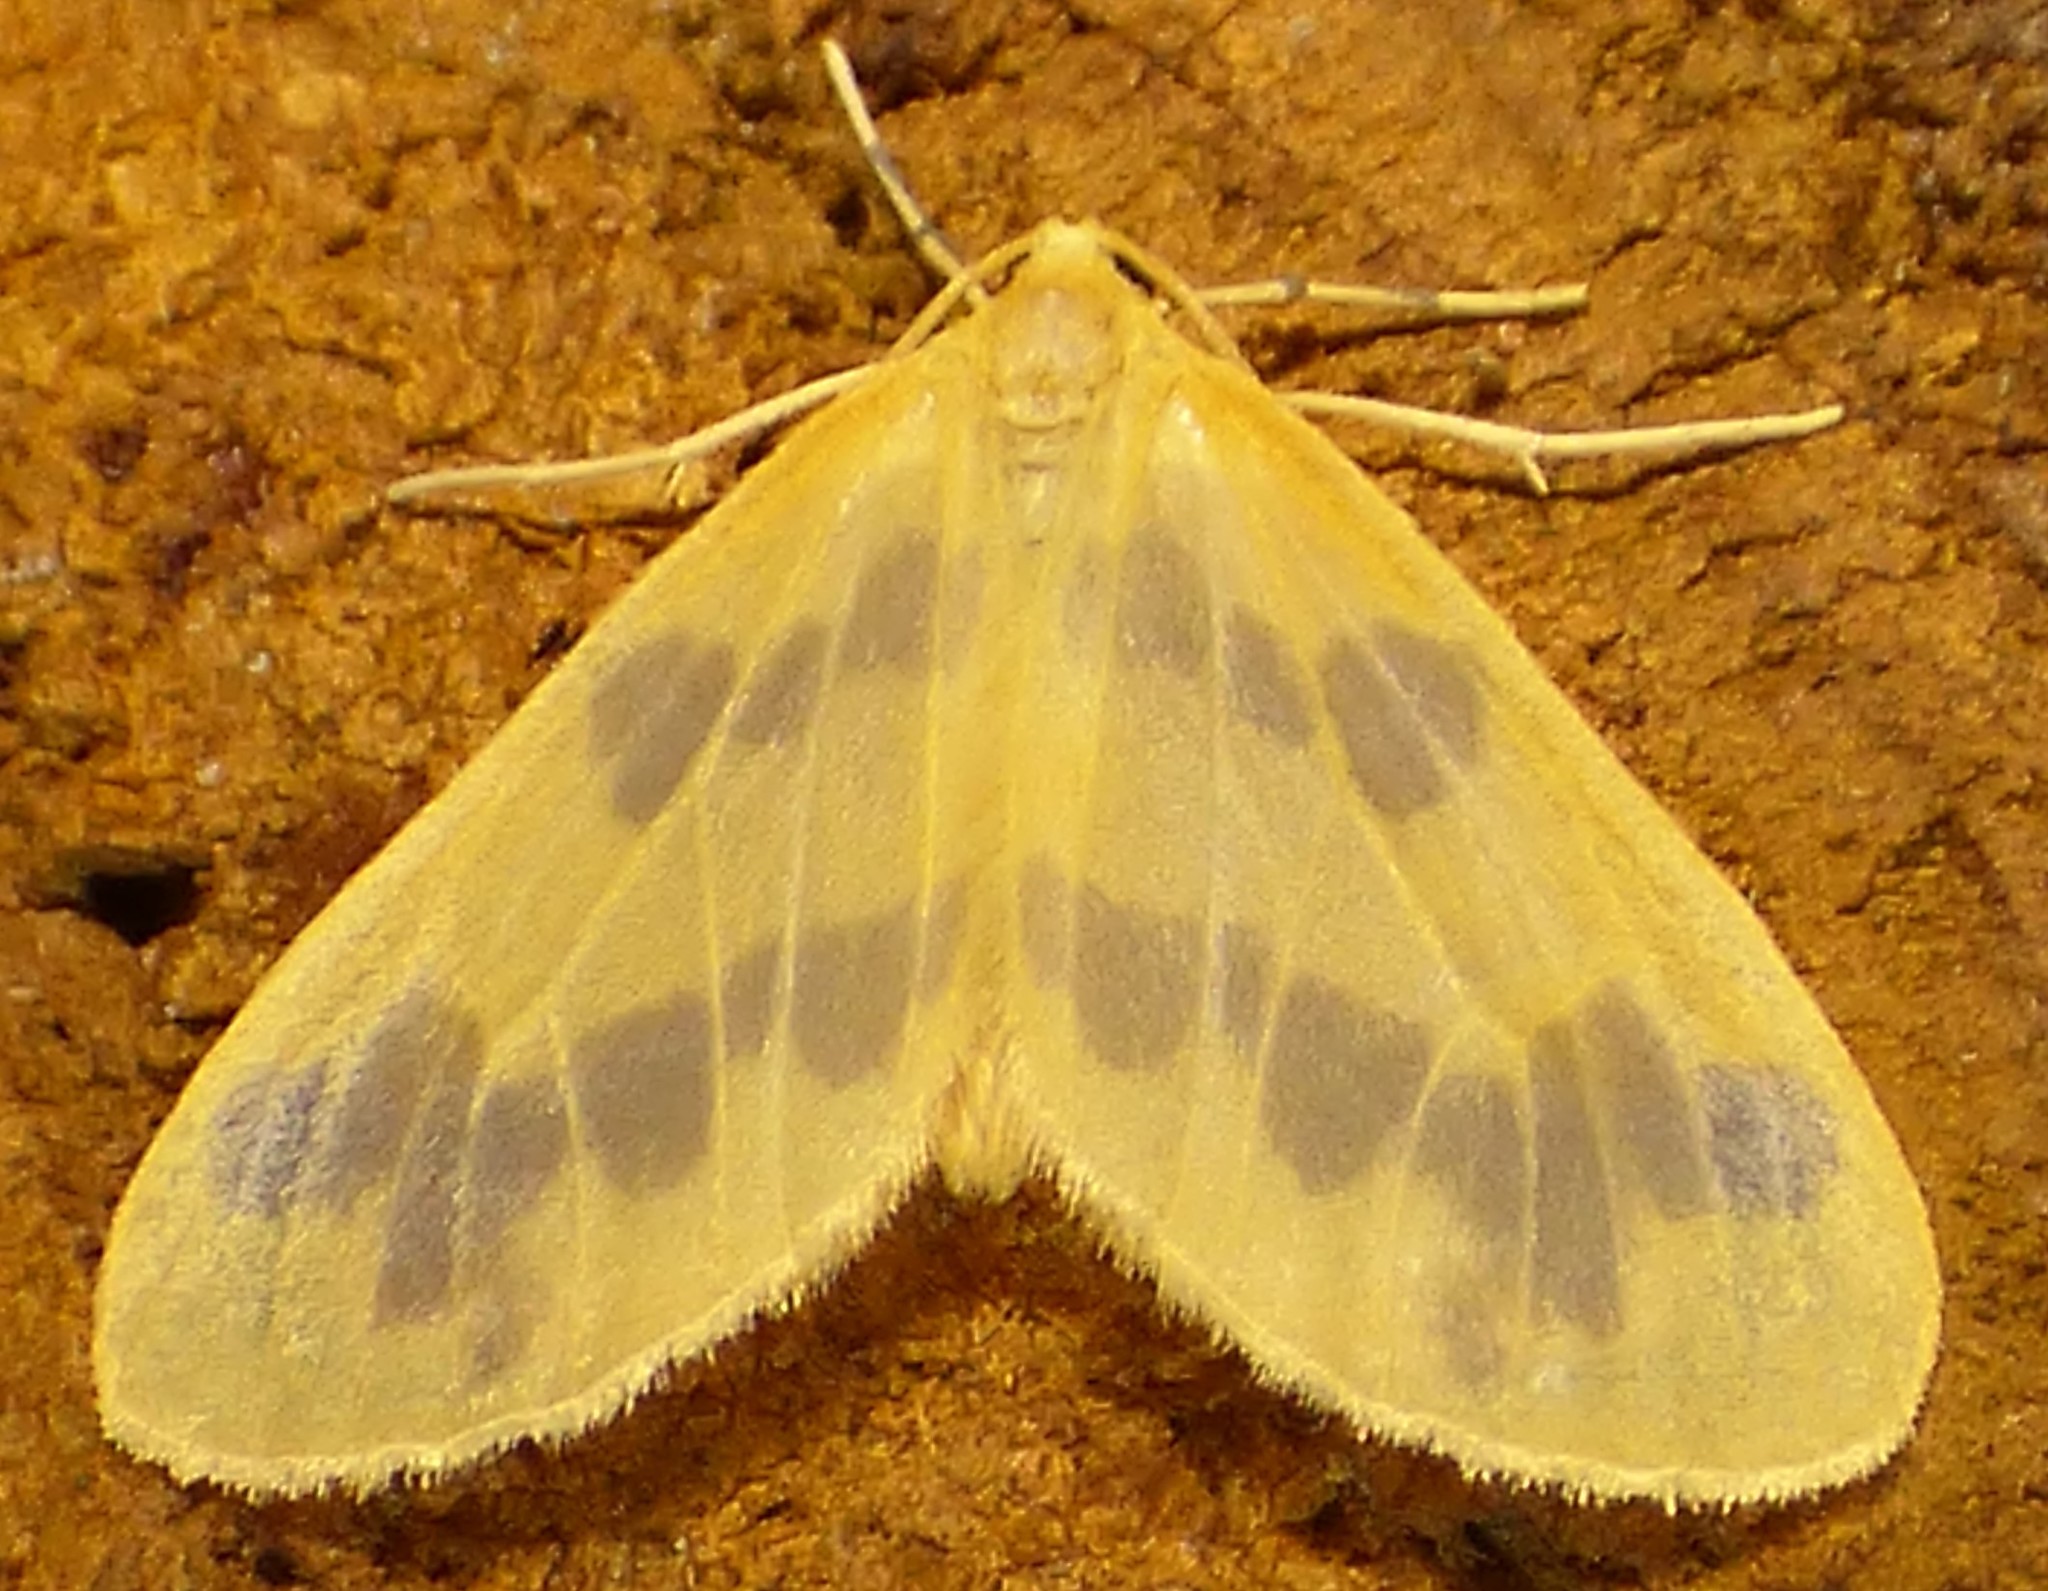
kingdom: Animalia
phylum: Arthropoda
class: Insecta
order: Lepidoptera
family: Geometridae
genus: Eubaphe
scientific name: Eubaphe mendica
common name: Beggar
